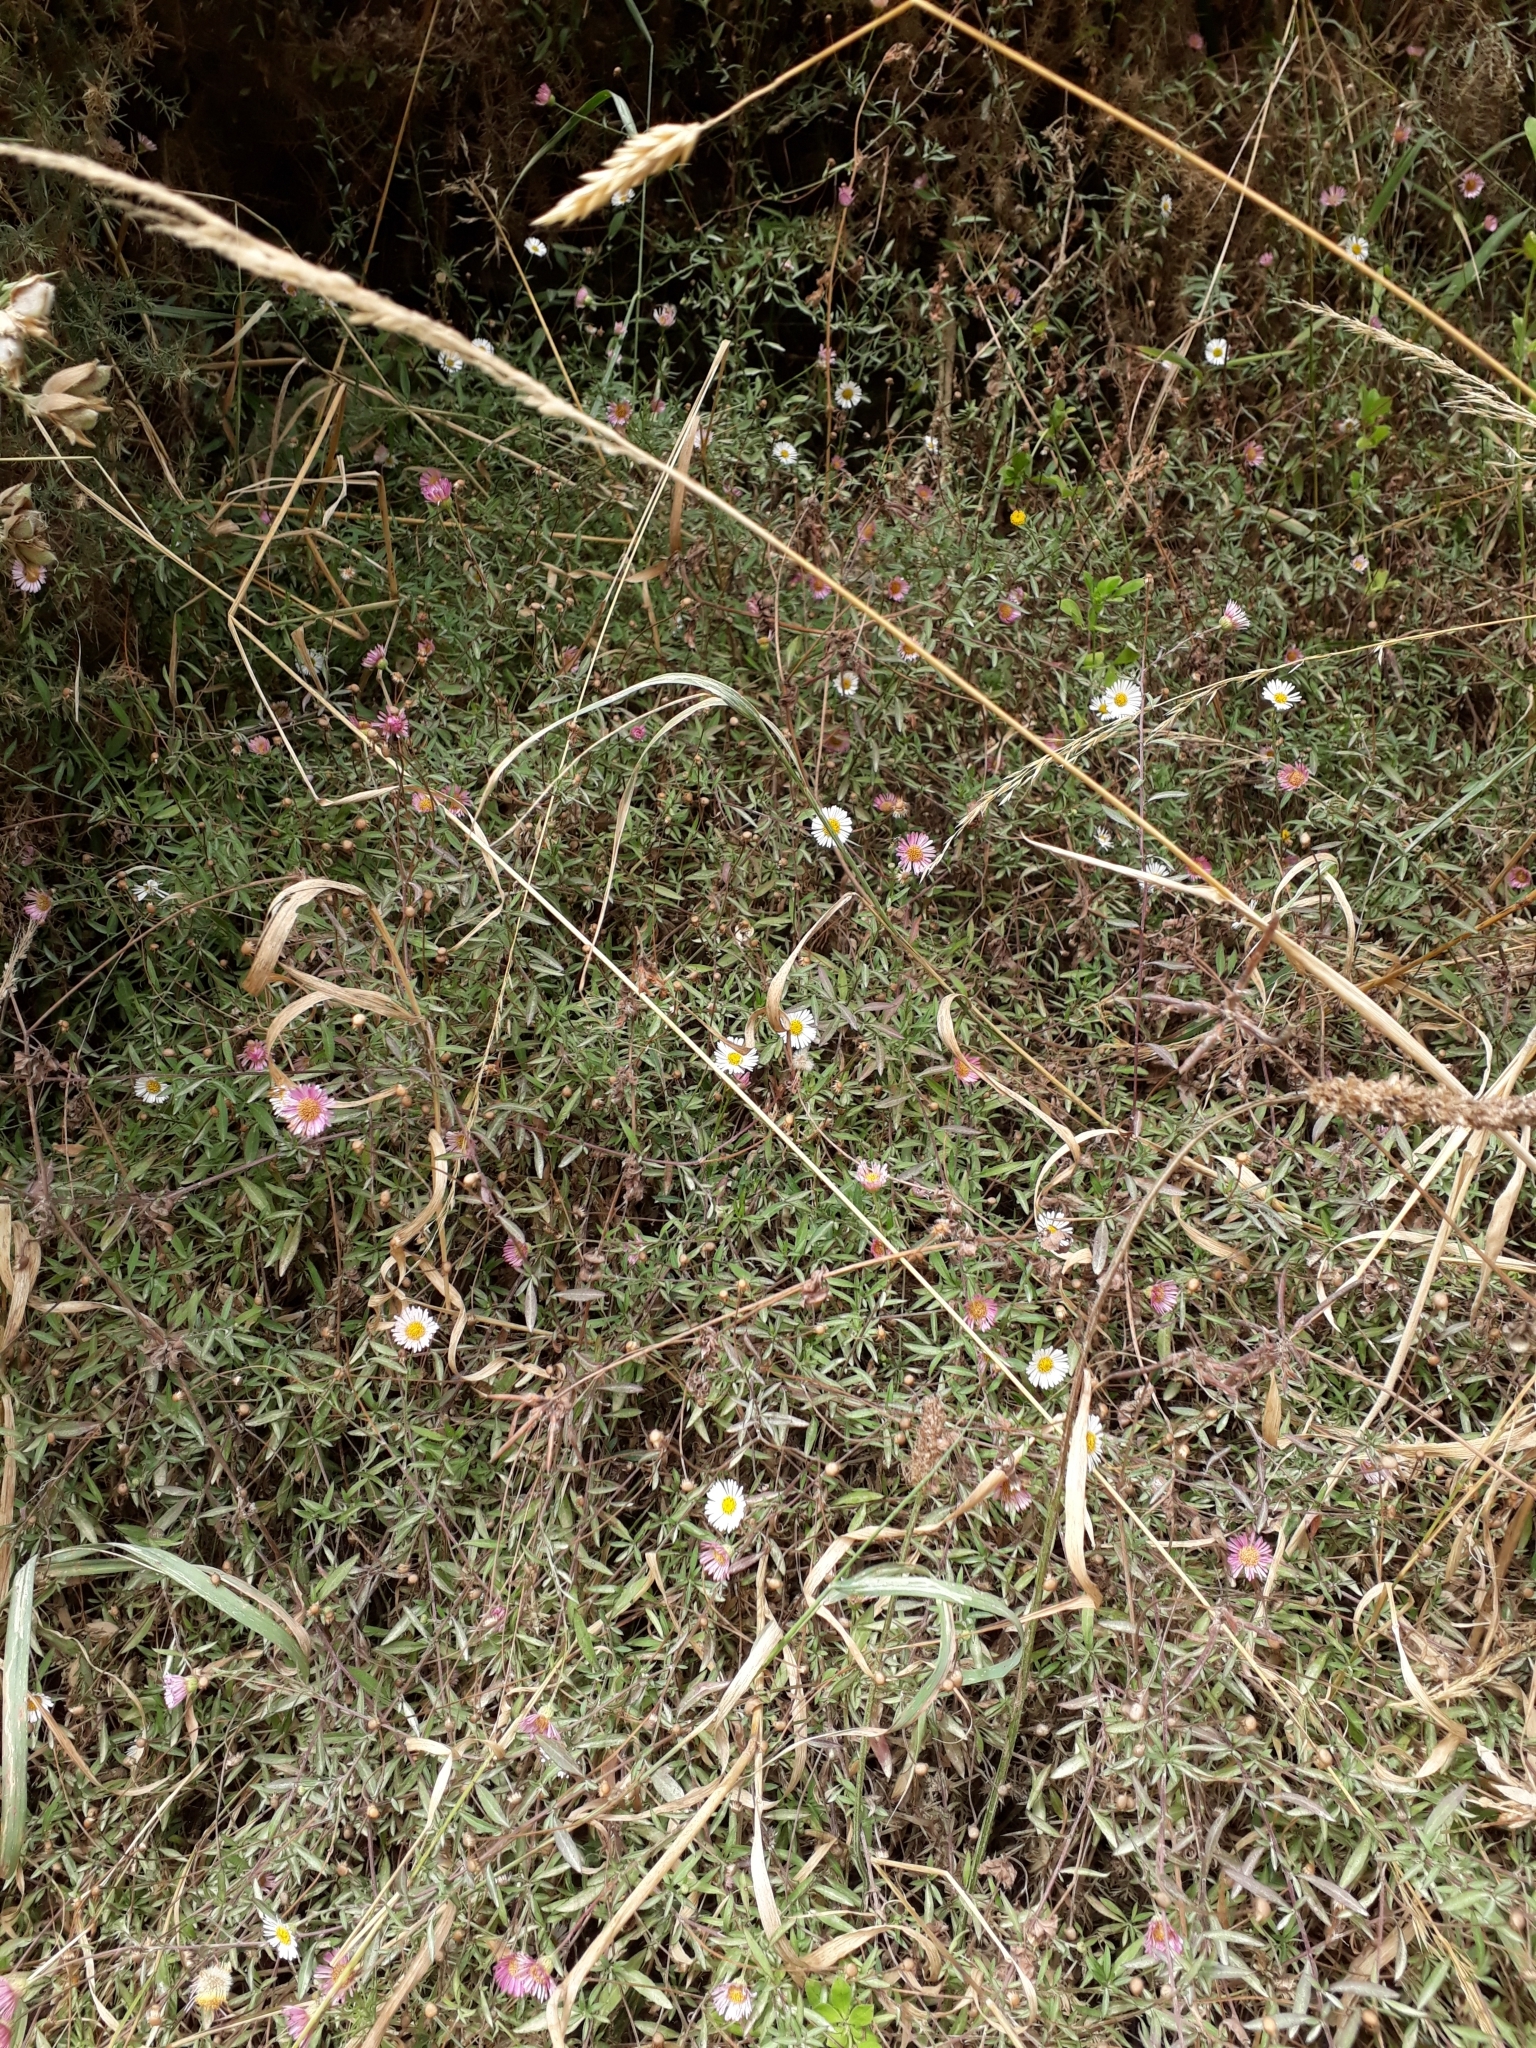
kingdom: Plantae
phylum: Tracheophyta
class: Magnoliopsida
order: Asterales
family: Asteraceae
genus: Erigeron
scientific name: Erigeron karvinskianus
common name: Mexican fleabane
